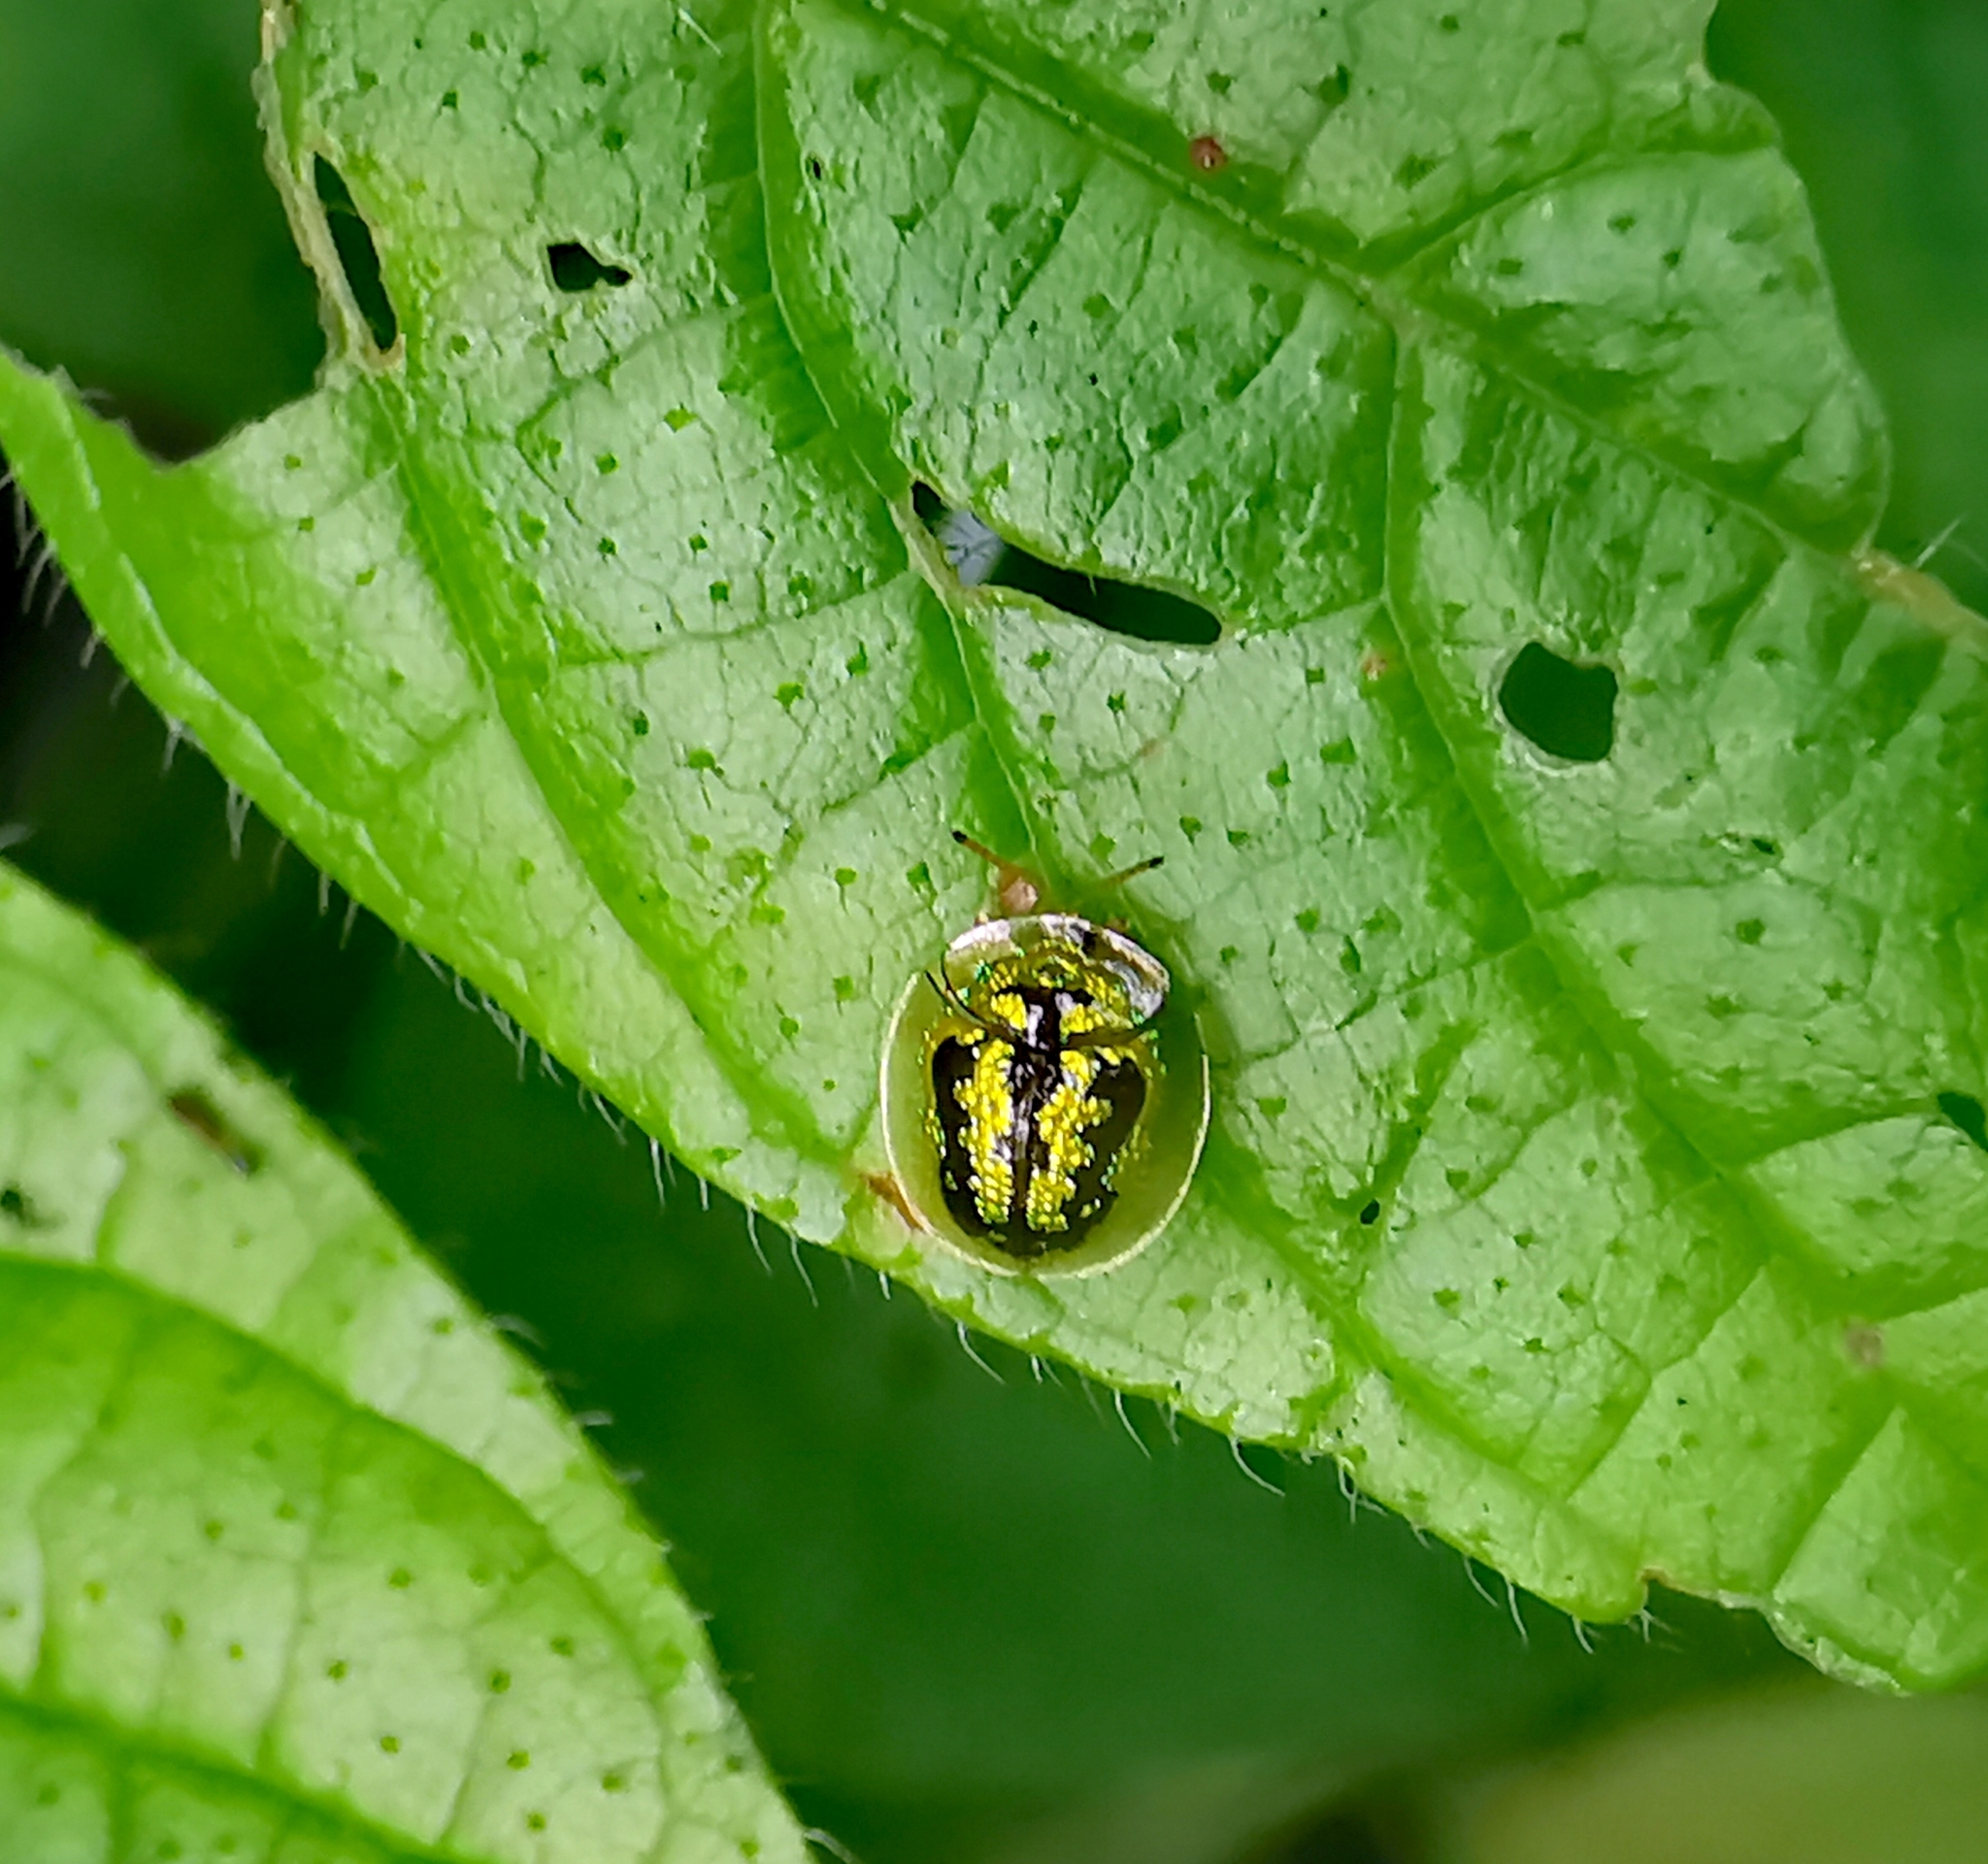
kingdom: Animalia
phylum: Arthropoda
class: Insecta
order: Coleoptera
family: Chrysomelidae
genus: Cassida
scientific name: Cassida circumdata
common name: Tortoise beetle
